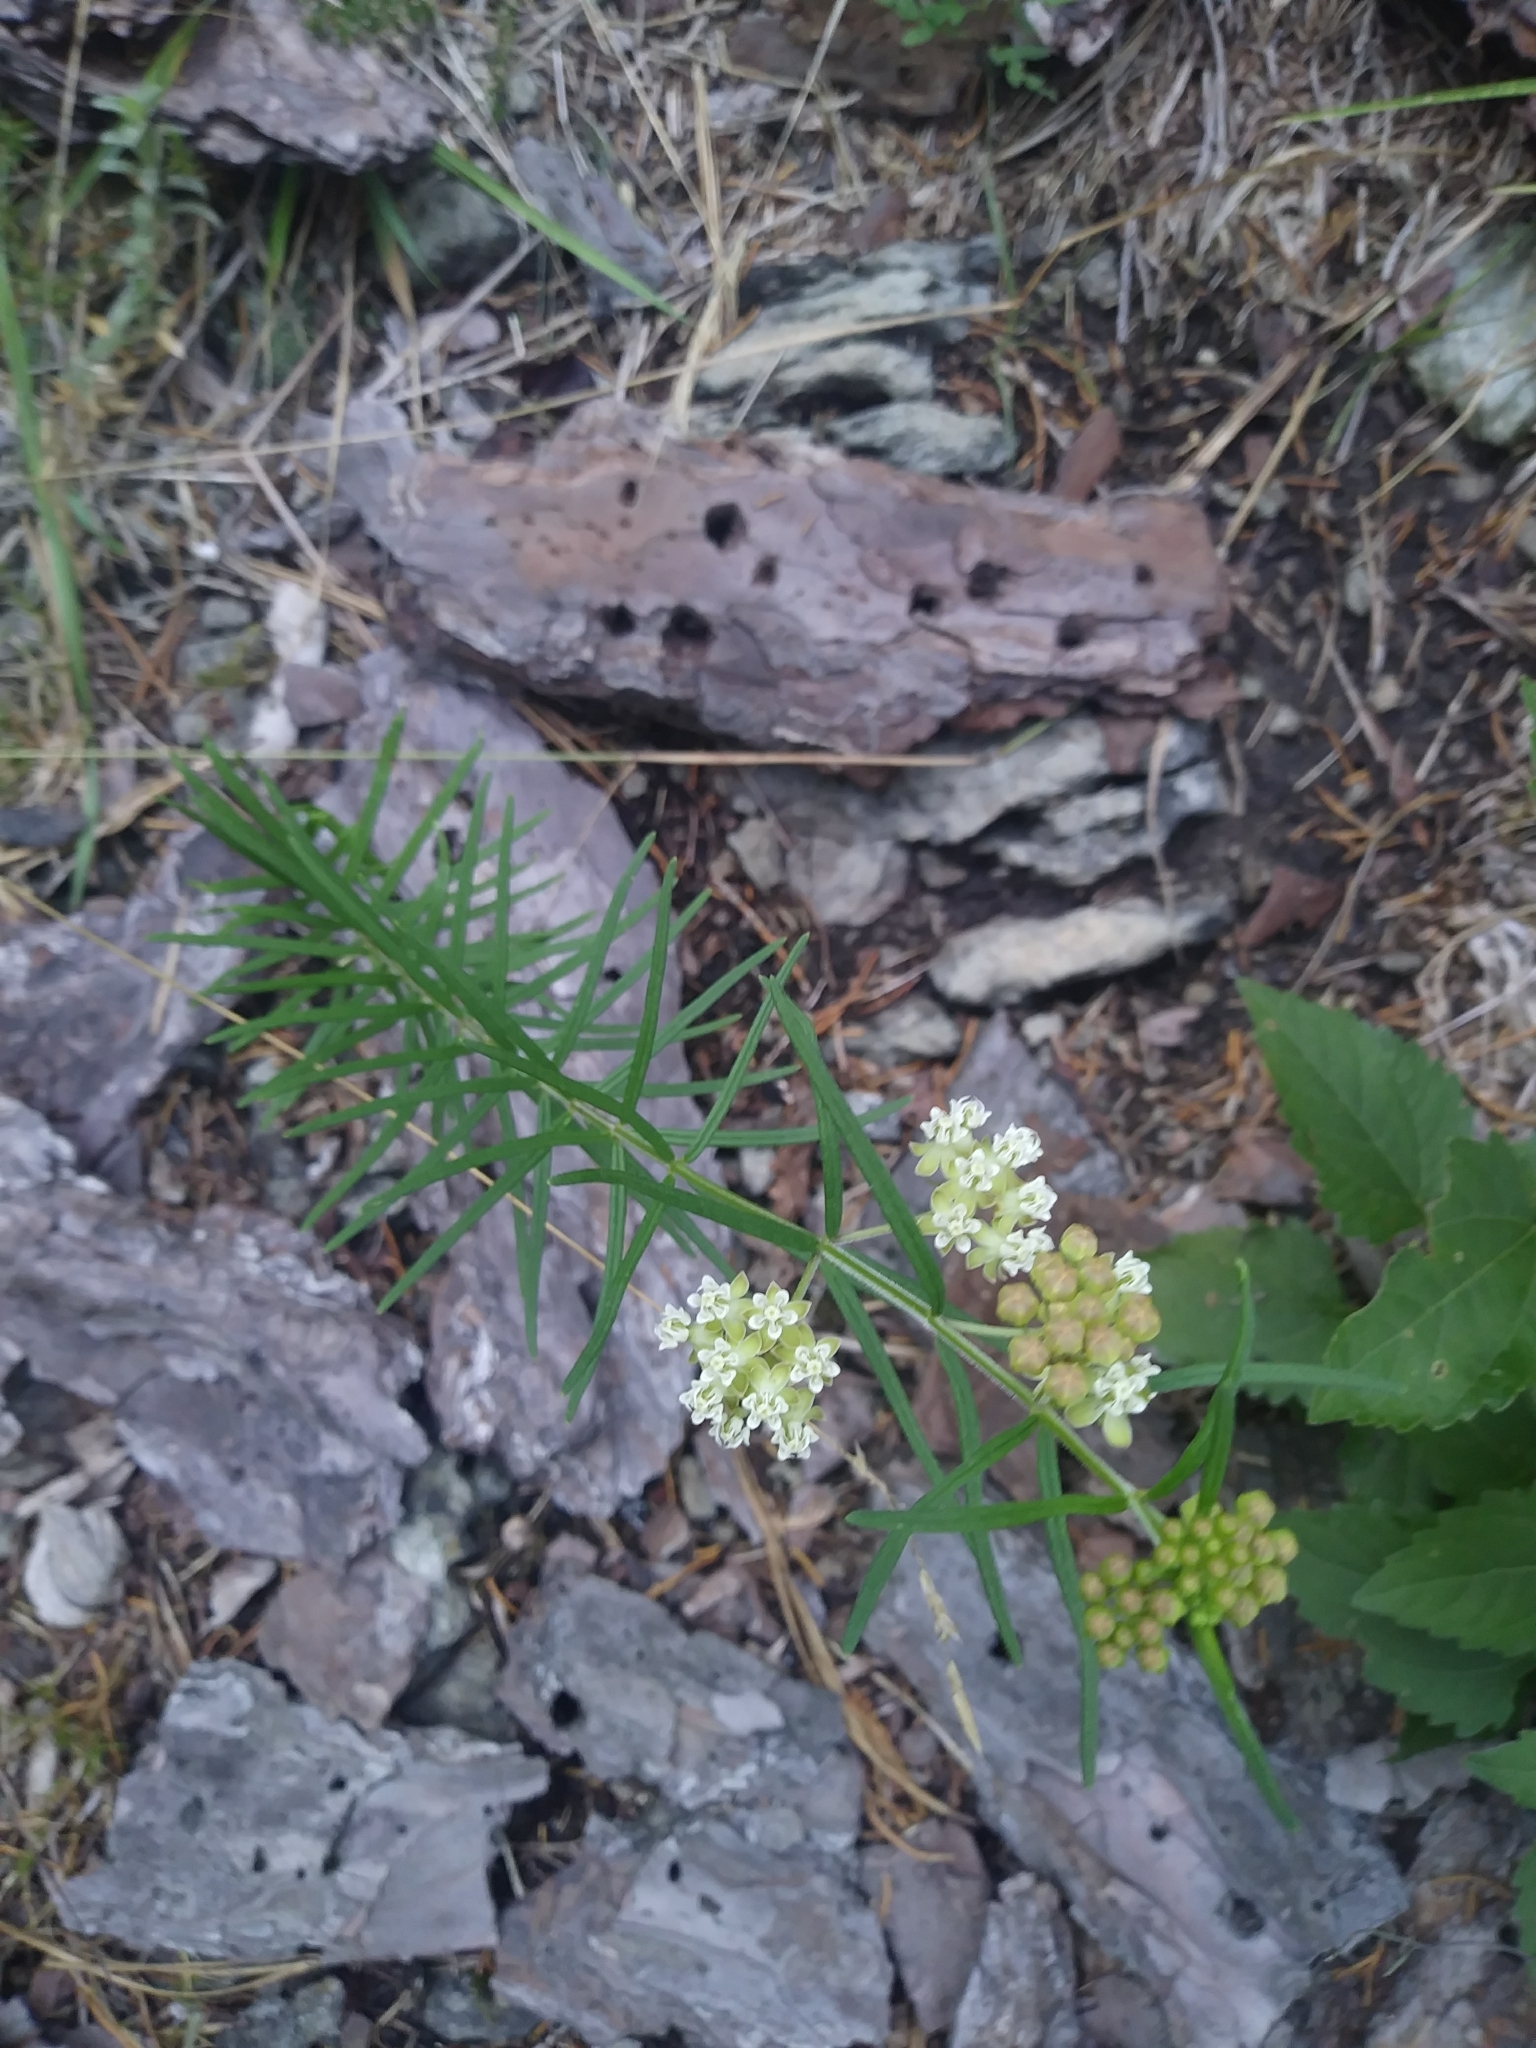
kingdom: Plantae
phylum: Tracheophyta
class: Magnoliopsida
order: Gentianales
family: Apocynaceae
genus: Asclepias
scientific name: Asclepias verticillata
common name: Eastern whorled milkweed
